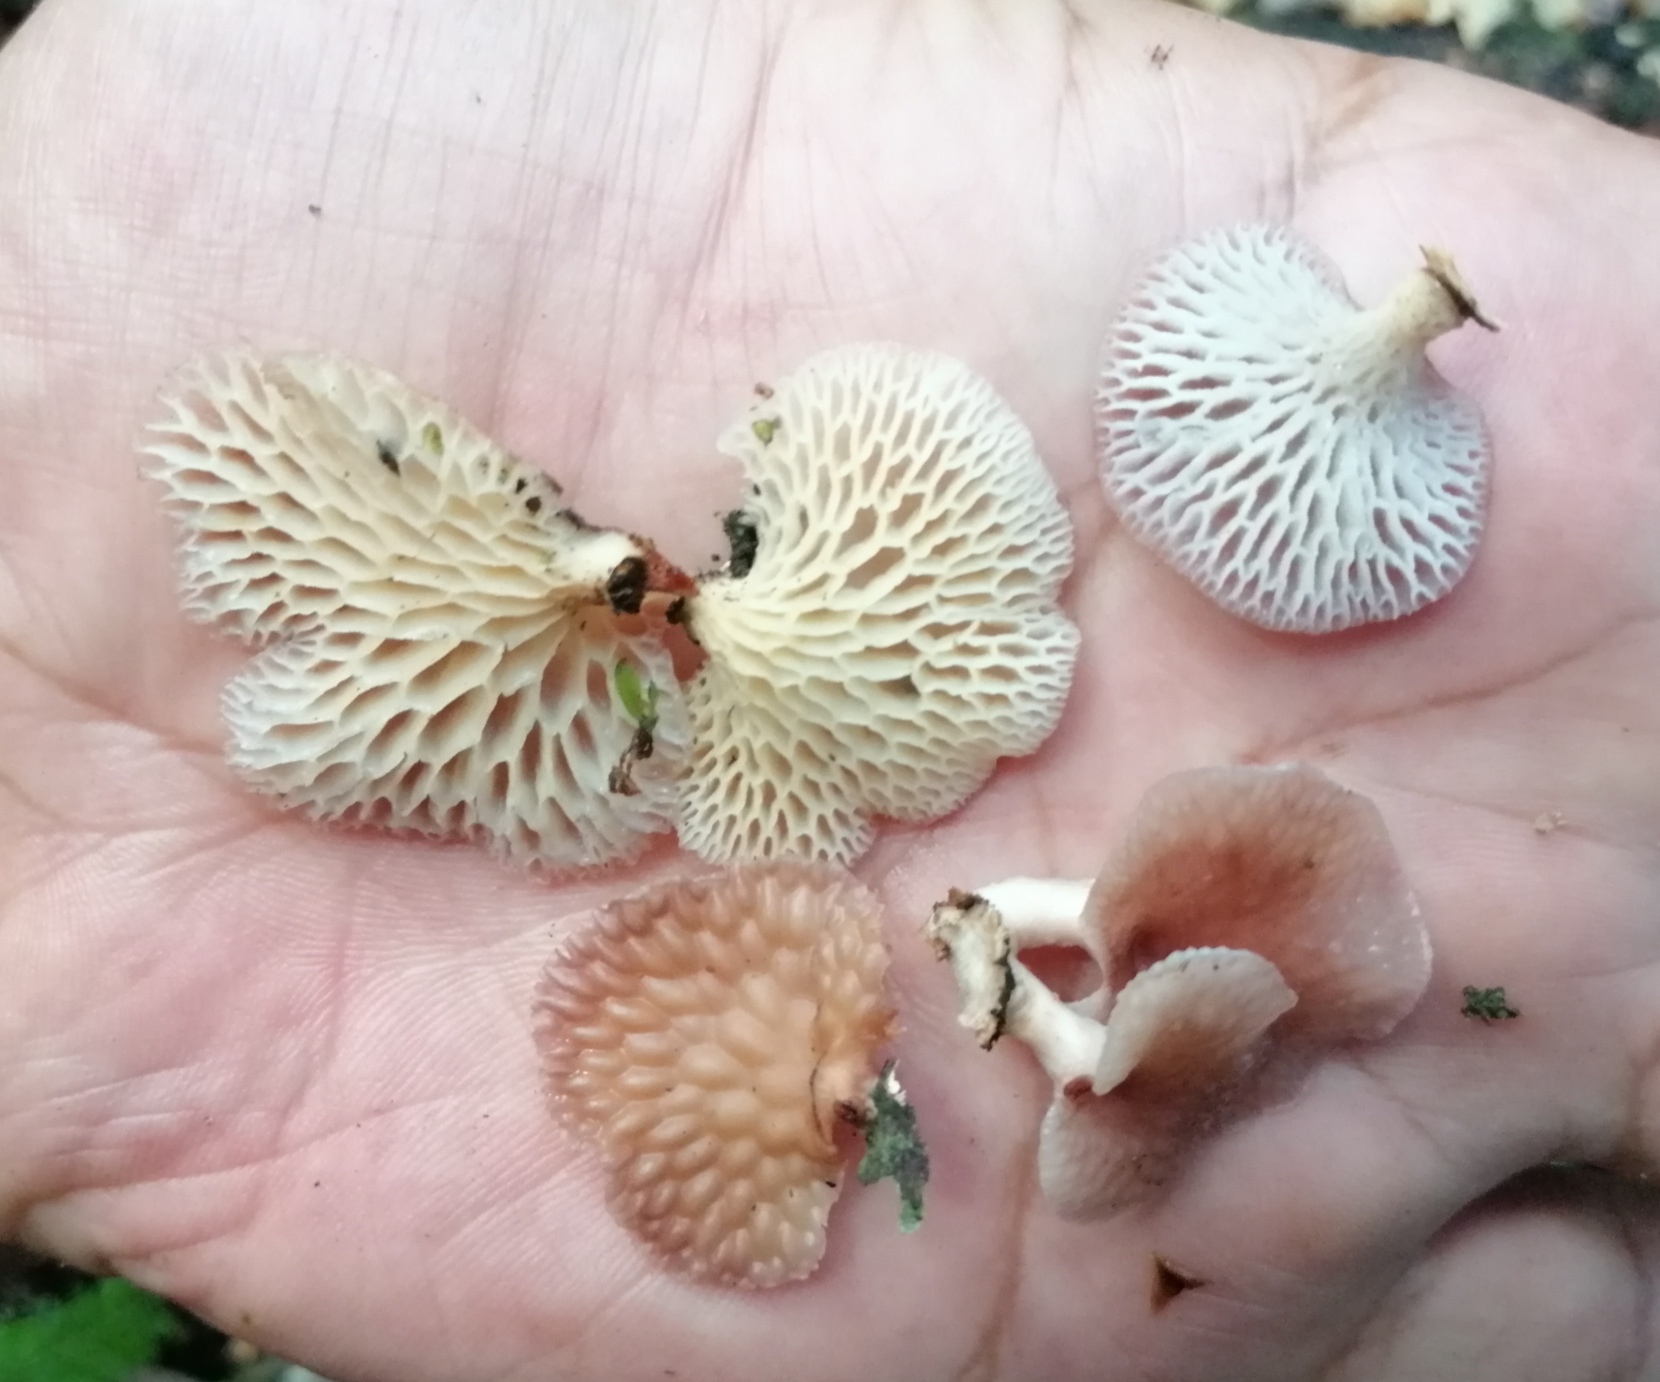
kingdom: Fungi
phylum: Basidiomycota
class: Agaricomycetes
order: Polyporales
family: Polyporaceae
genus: Neofavolus
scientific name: Neofavolus subpurpurascens
